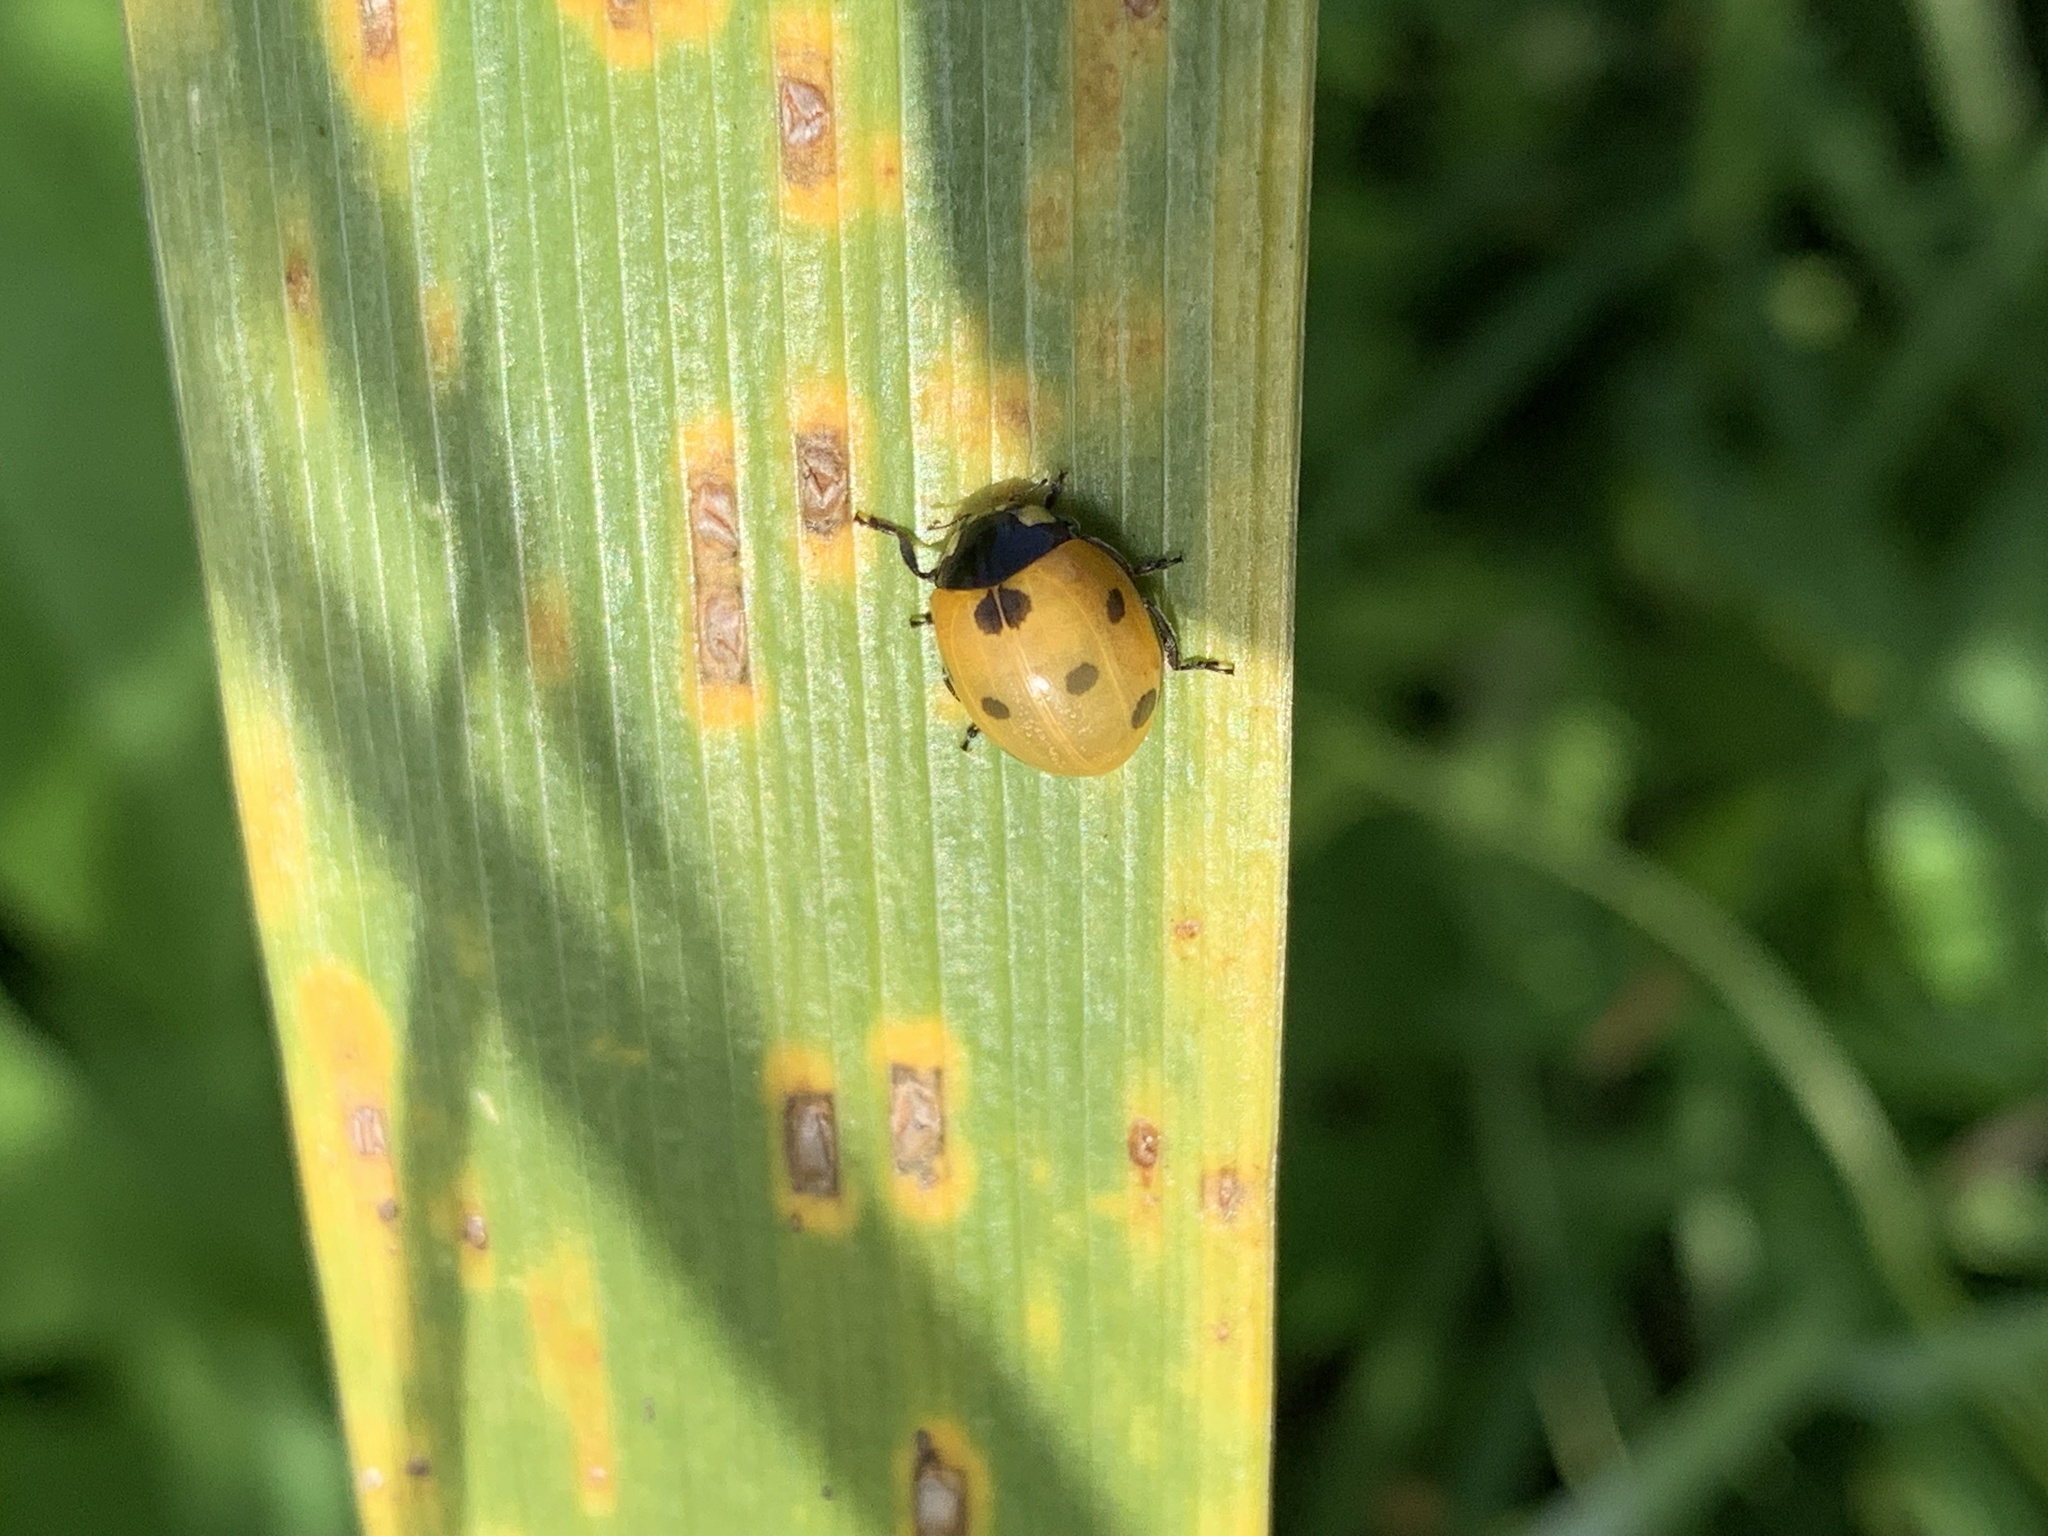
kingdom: Animalia
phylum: Arthropoda
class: Insecta
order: Coleoptera
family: Coccinellidae
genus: Coccinella
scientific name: Coccinella septempunctata
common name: Sevenspotted lady beetle
